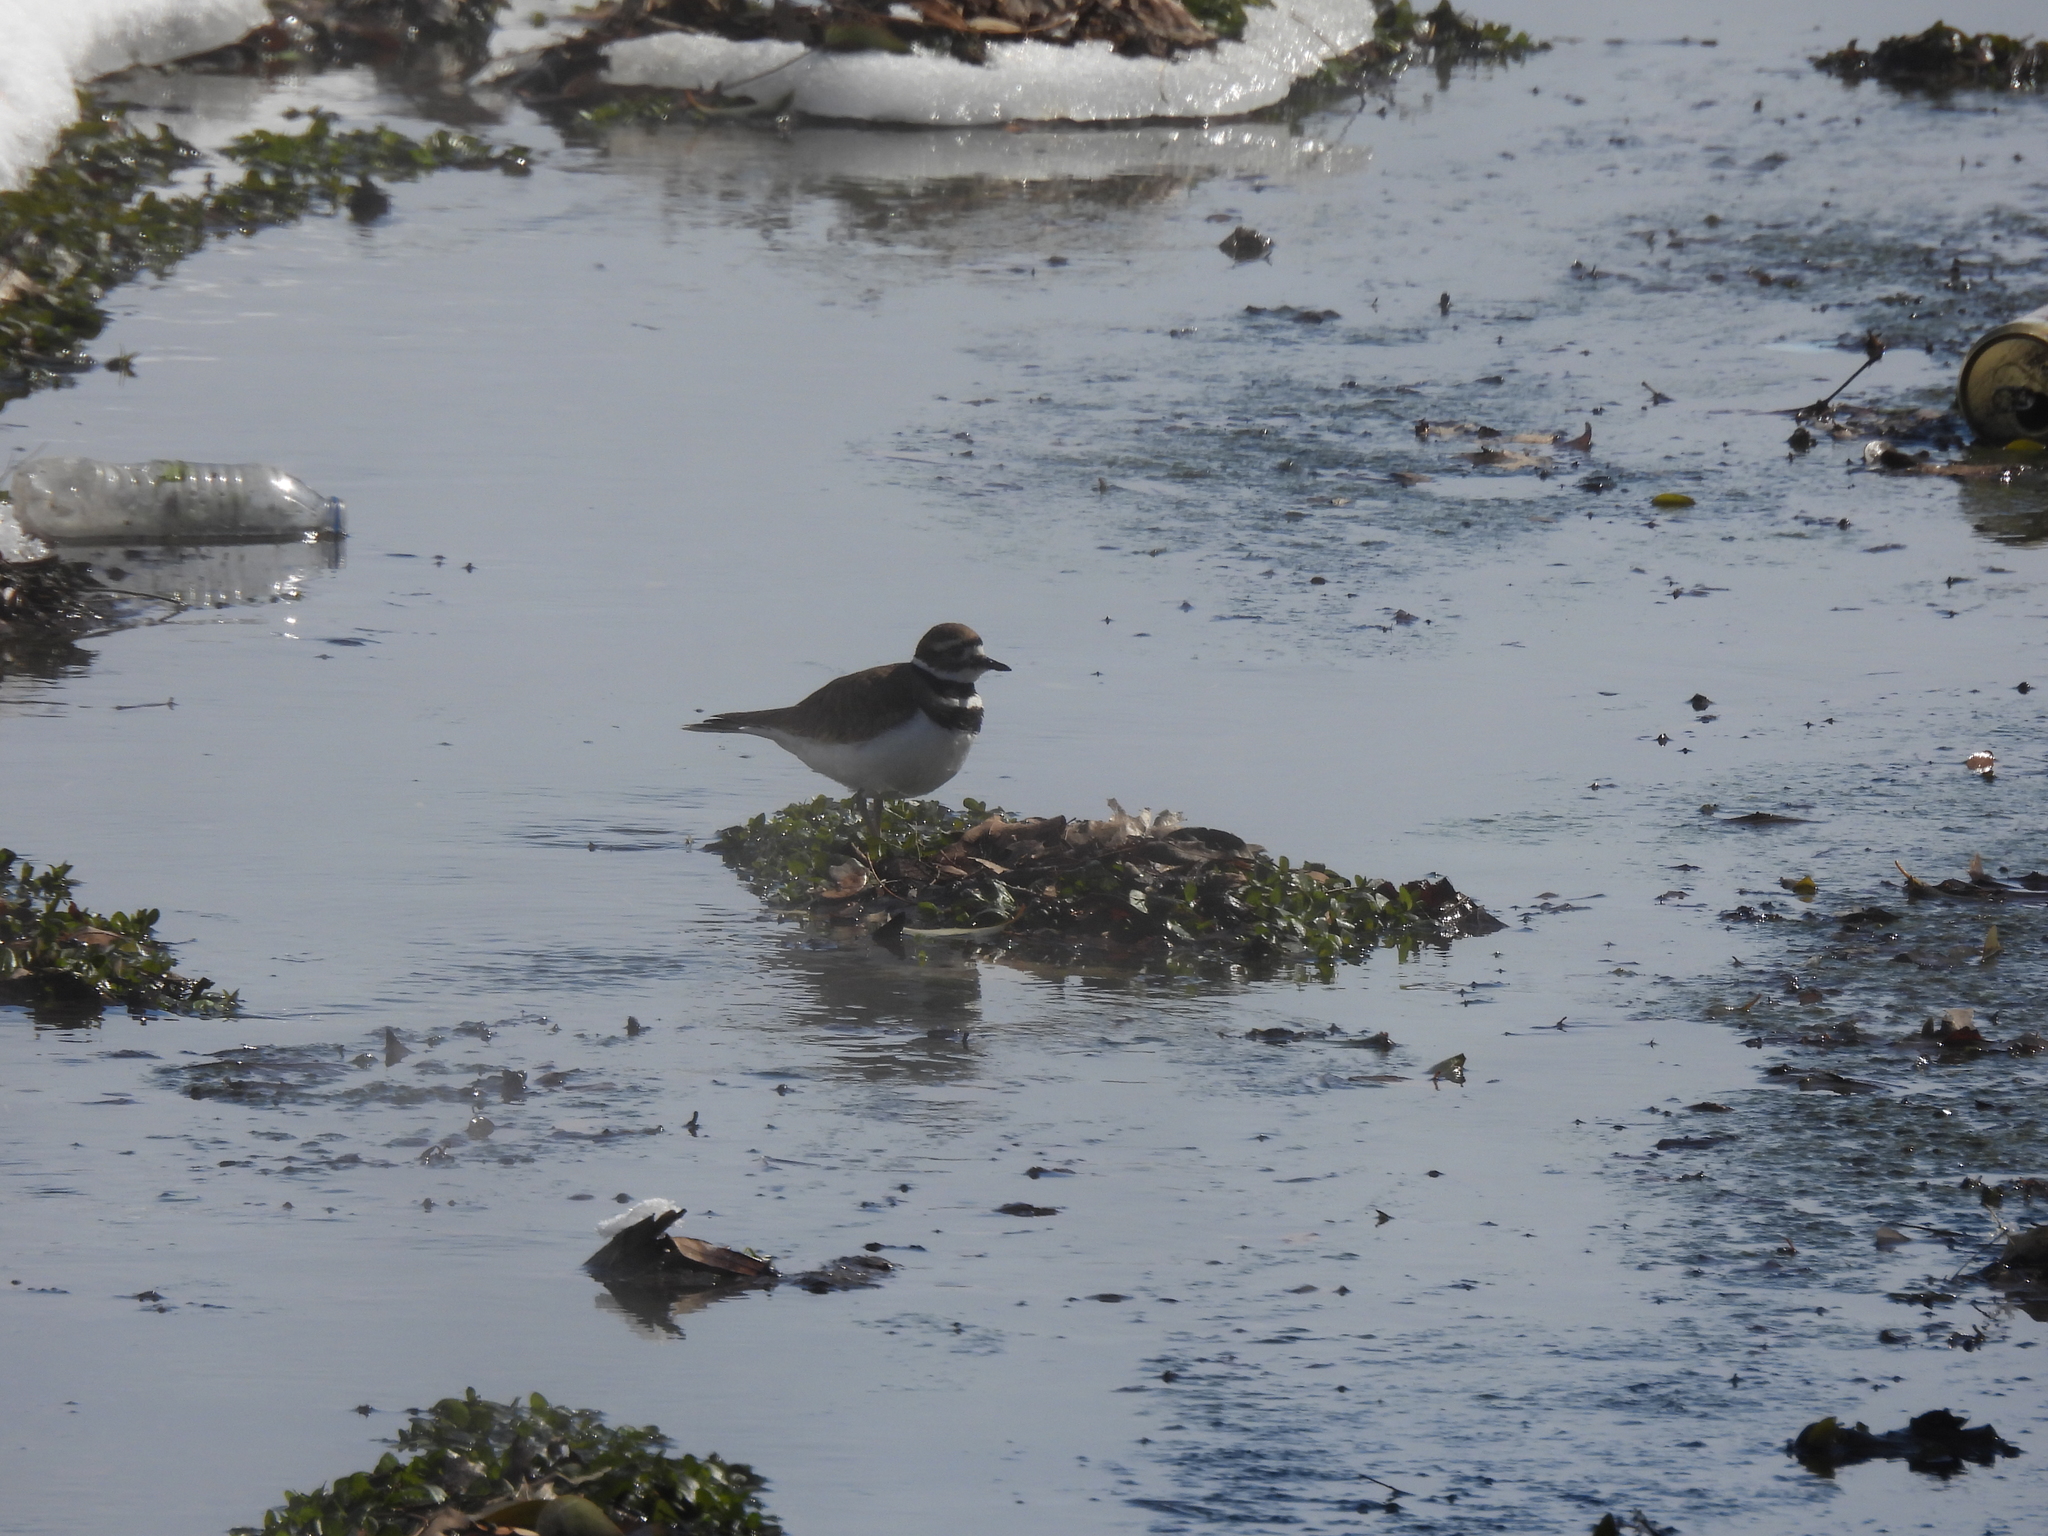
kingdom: Animalia
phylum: Chordata
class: Aves
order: Charadriiformes
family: Charadriidae
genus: Charadrius
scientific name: Charadrius vociferus
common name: Killdeer
